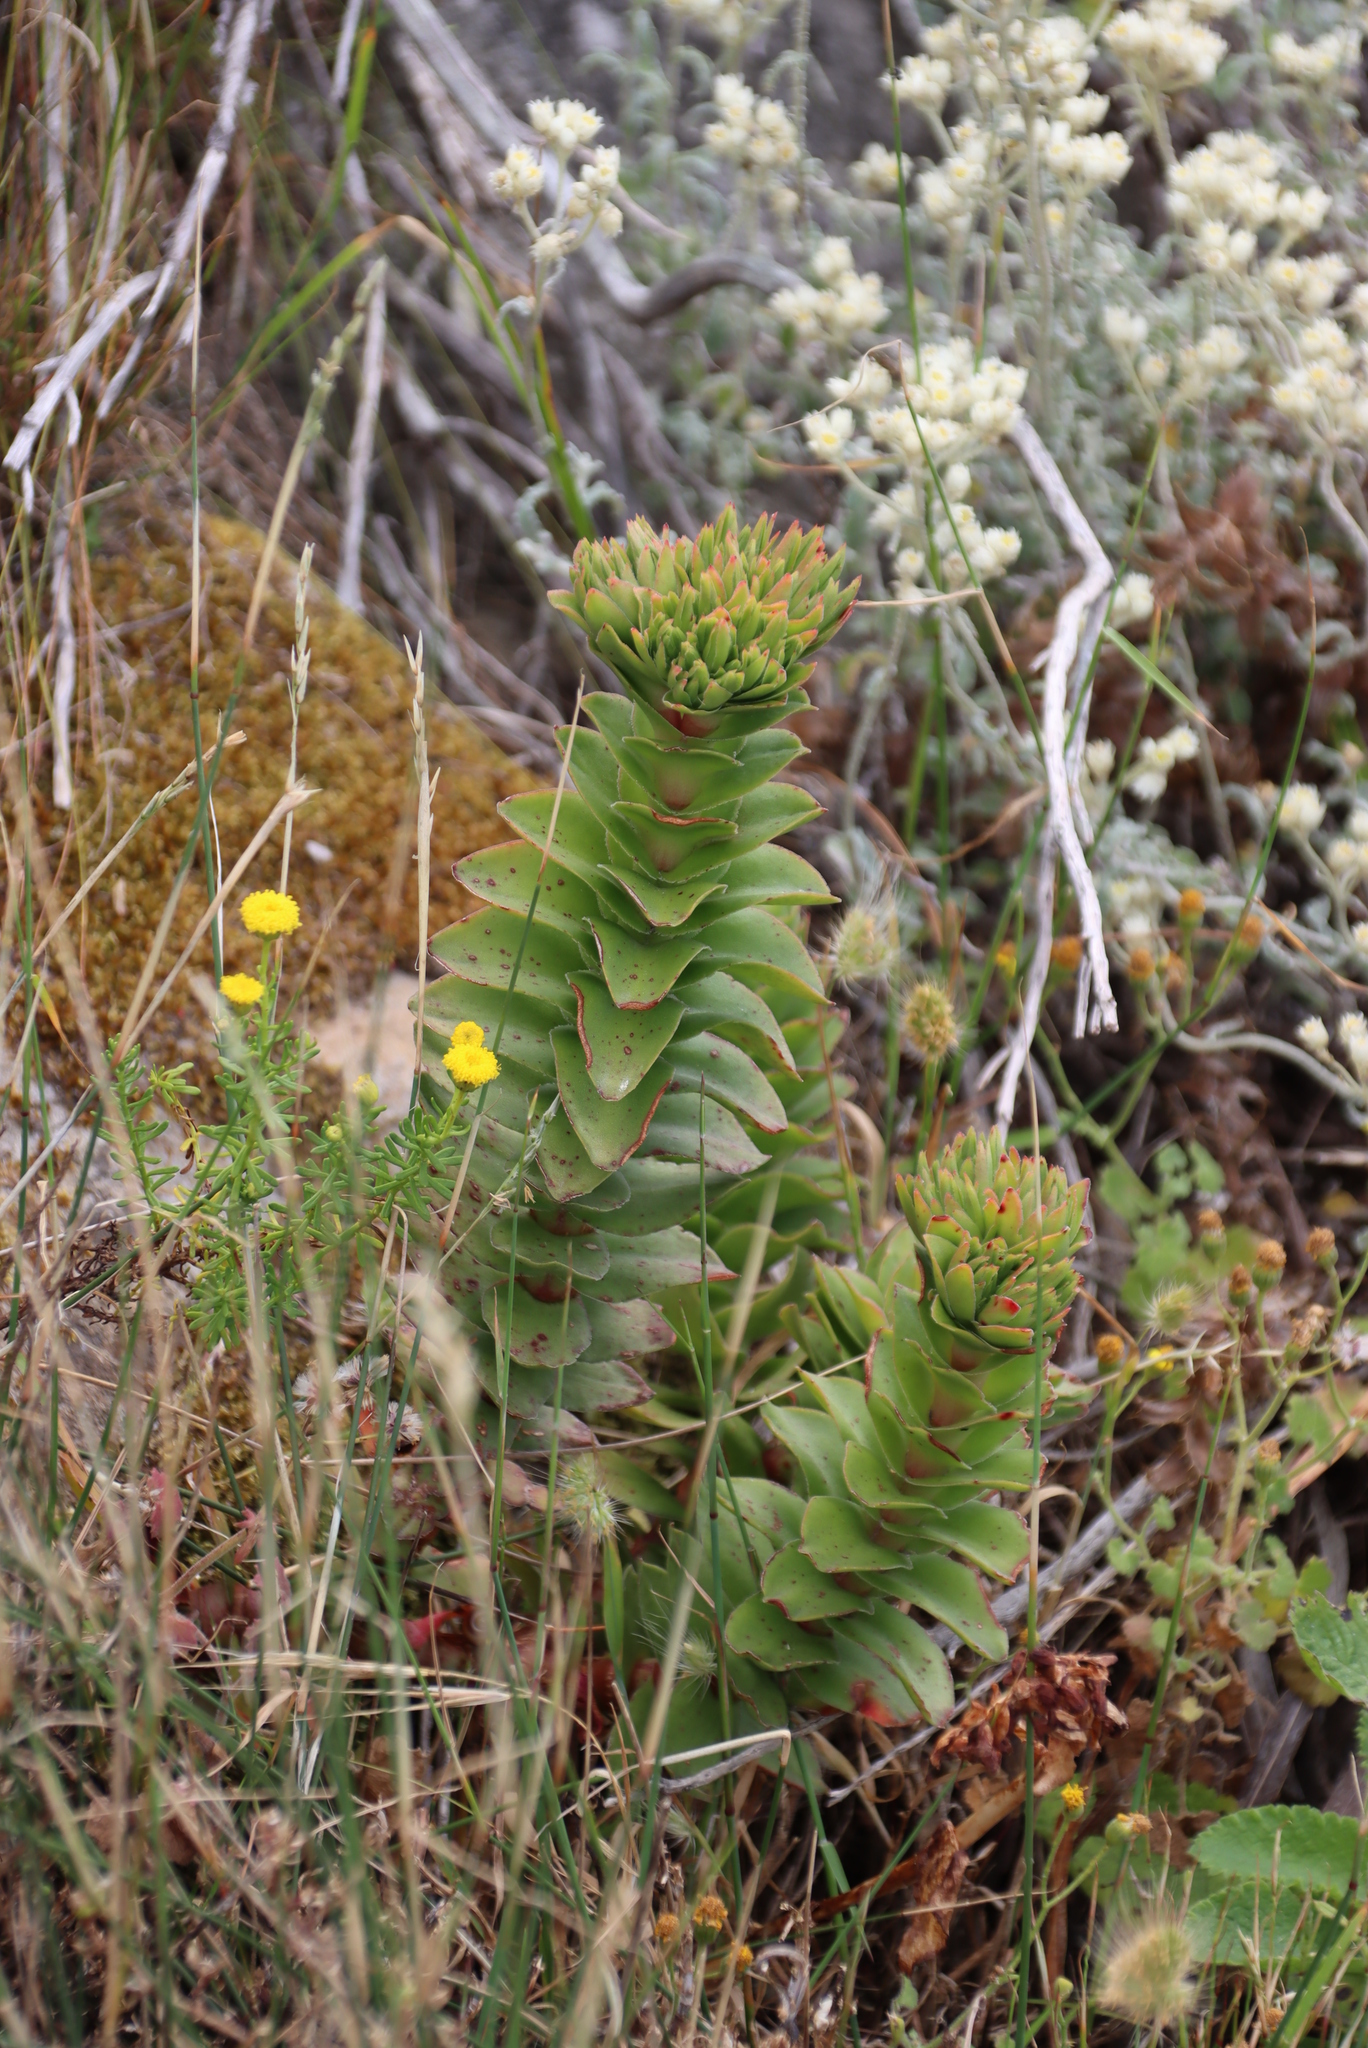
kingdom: Plantae
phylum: Tracheophyta
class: Magnoliopsida
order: Saxifragales
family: Crassulaceae
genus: Crassula
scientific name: Crassula coccinea
